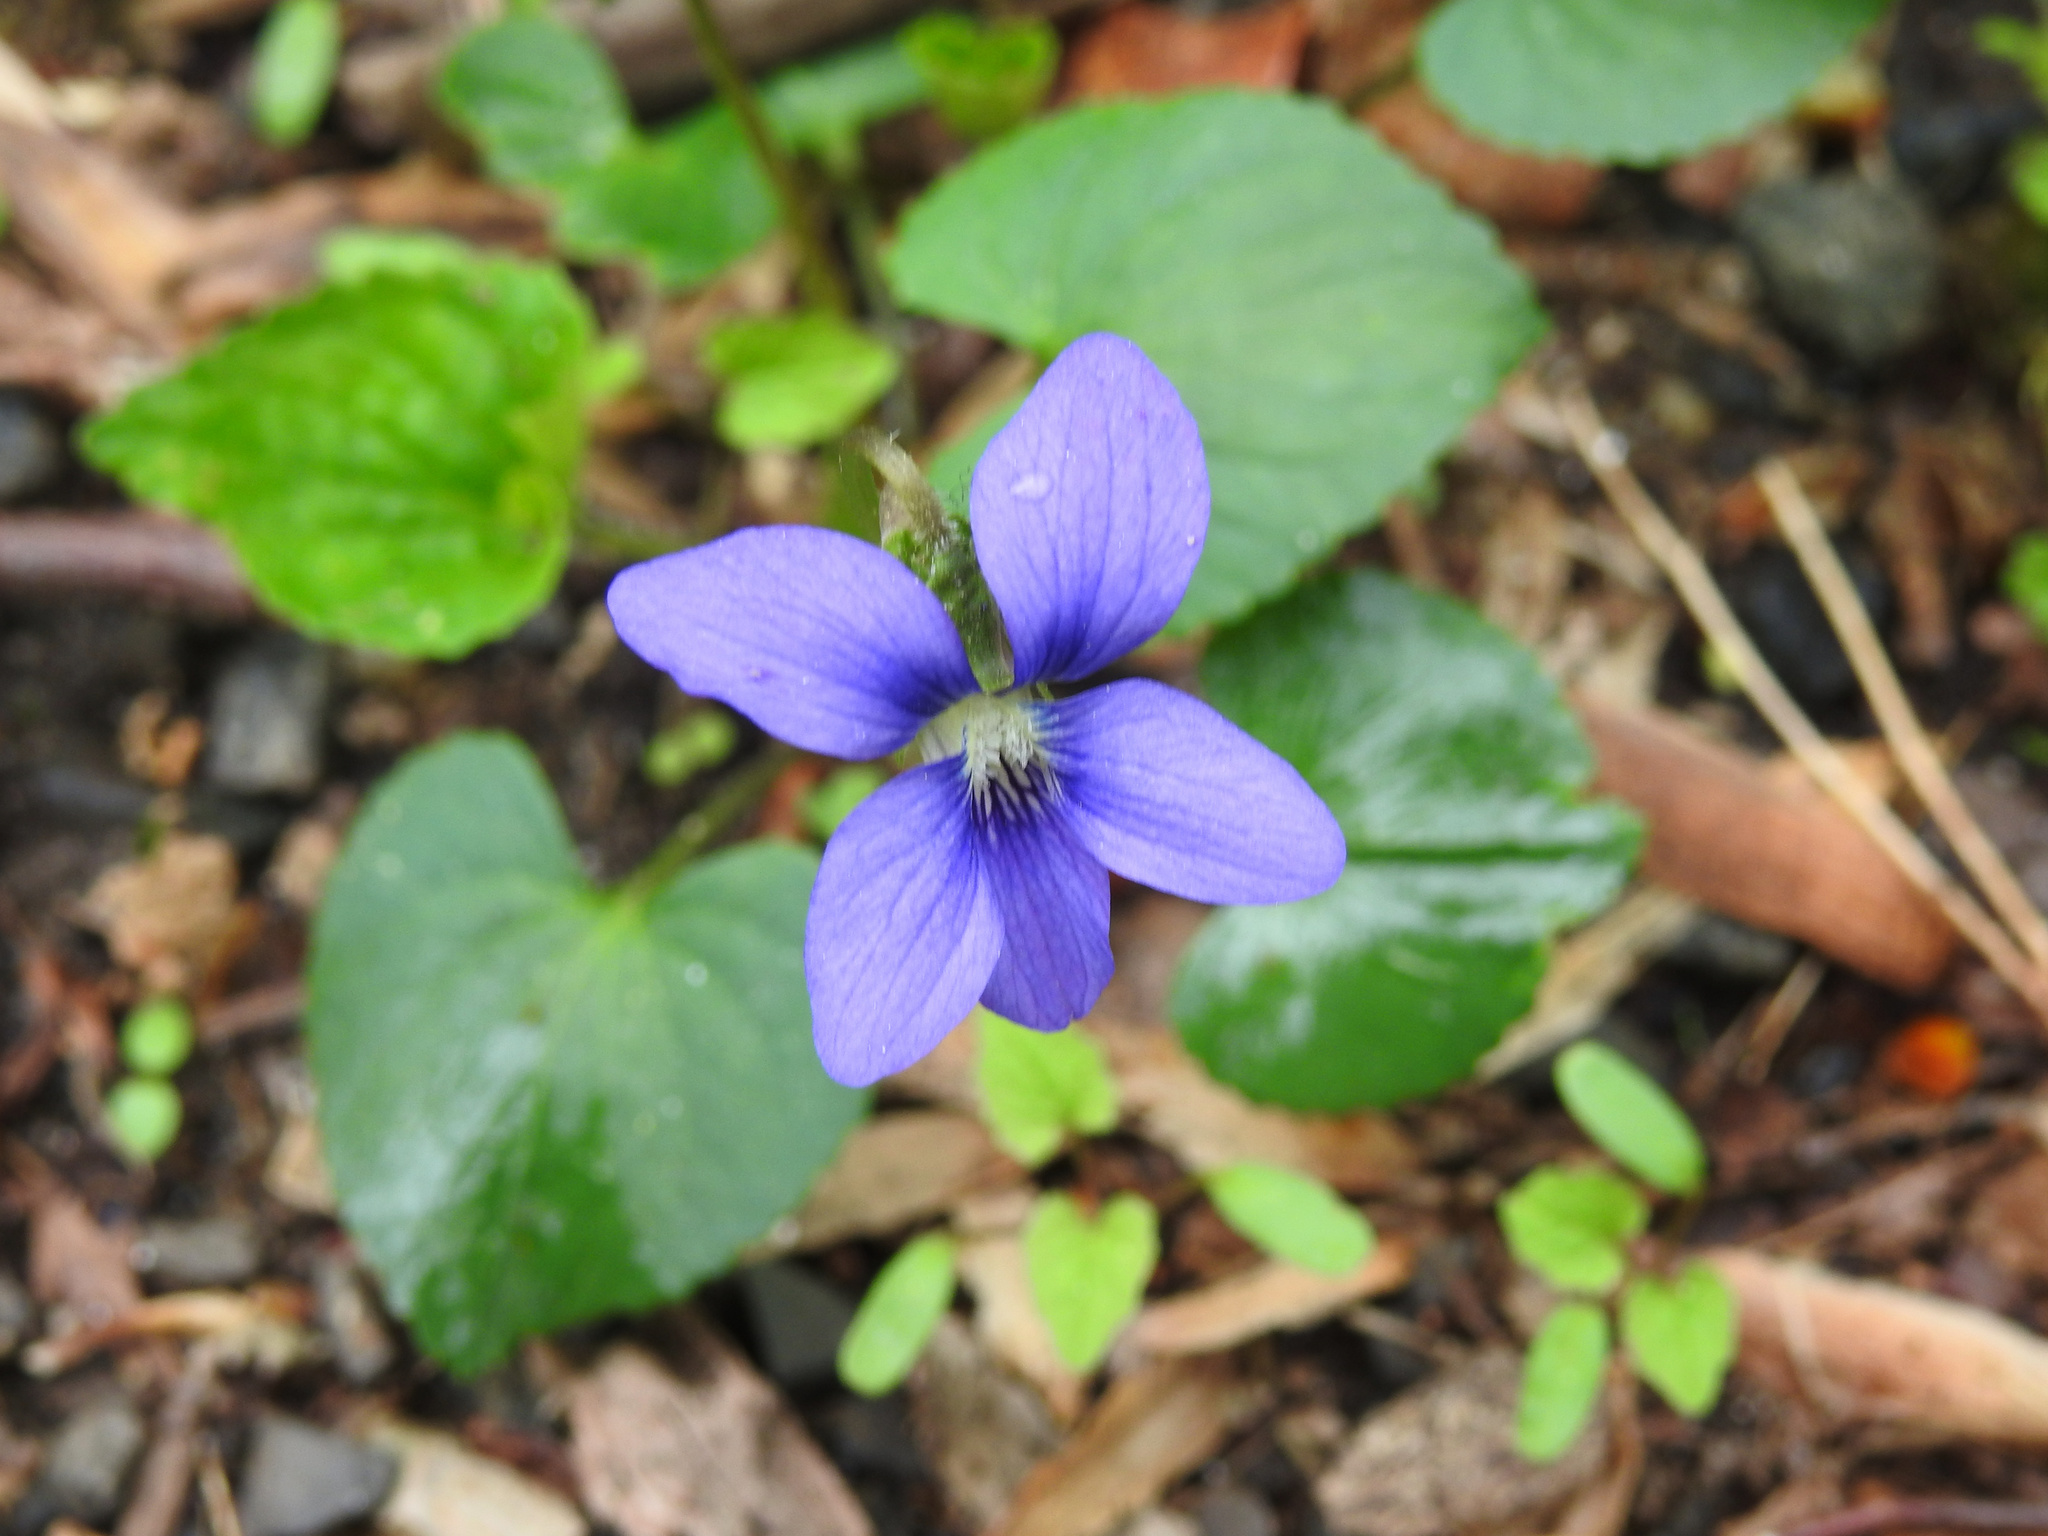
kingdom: Plantae
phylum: Tracheophyta
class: Magnoliopsida
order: Malpighiales
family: Violaceae
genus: Viola
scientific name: Viola sororia
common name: Dooryard violet
